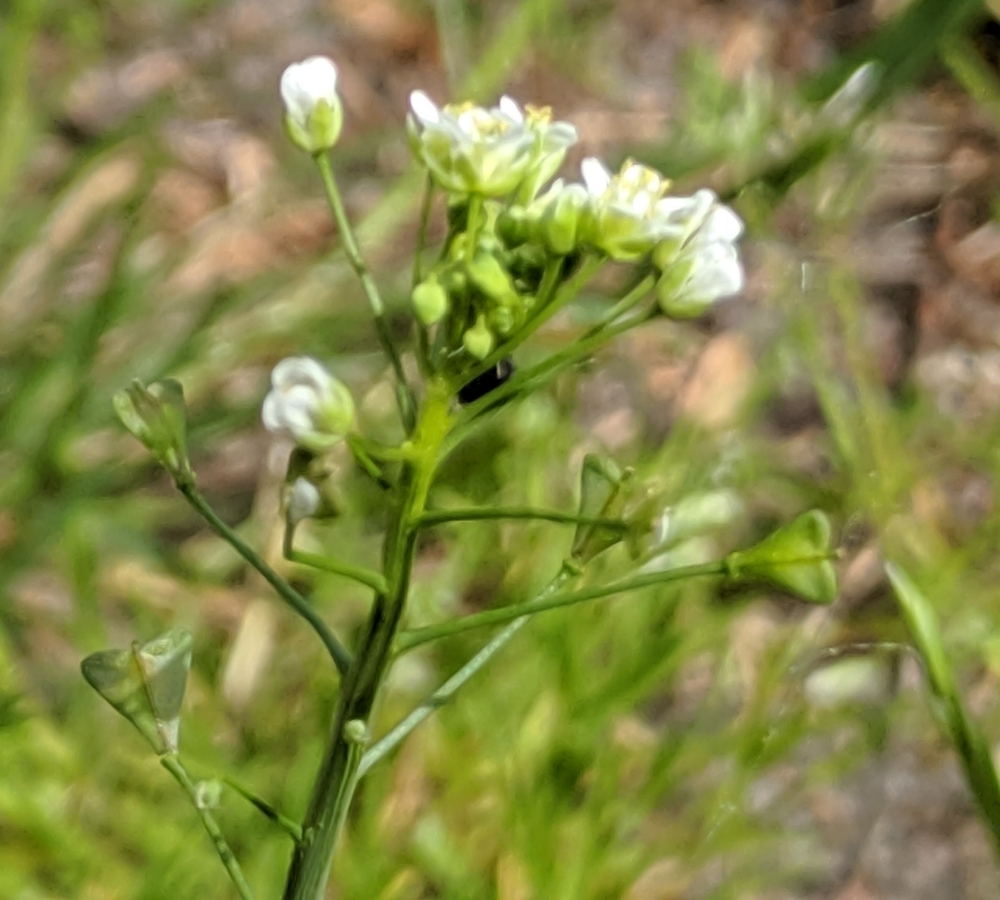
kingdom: Plantae
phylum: Tracheophyta
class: Magnoliopsida
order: Brassicales
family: Brassicaceae
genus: Capsella
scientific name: Capsella bursa-pastoris
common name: Shepherd's purse
